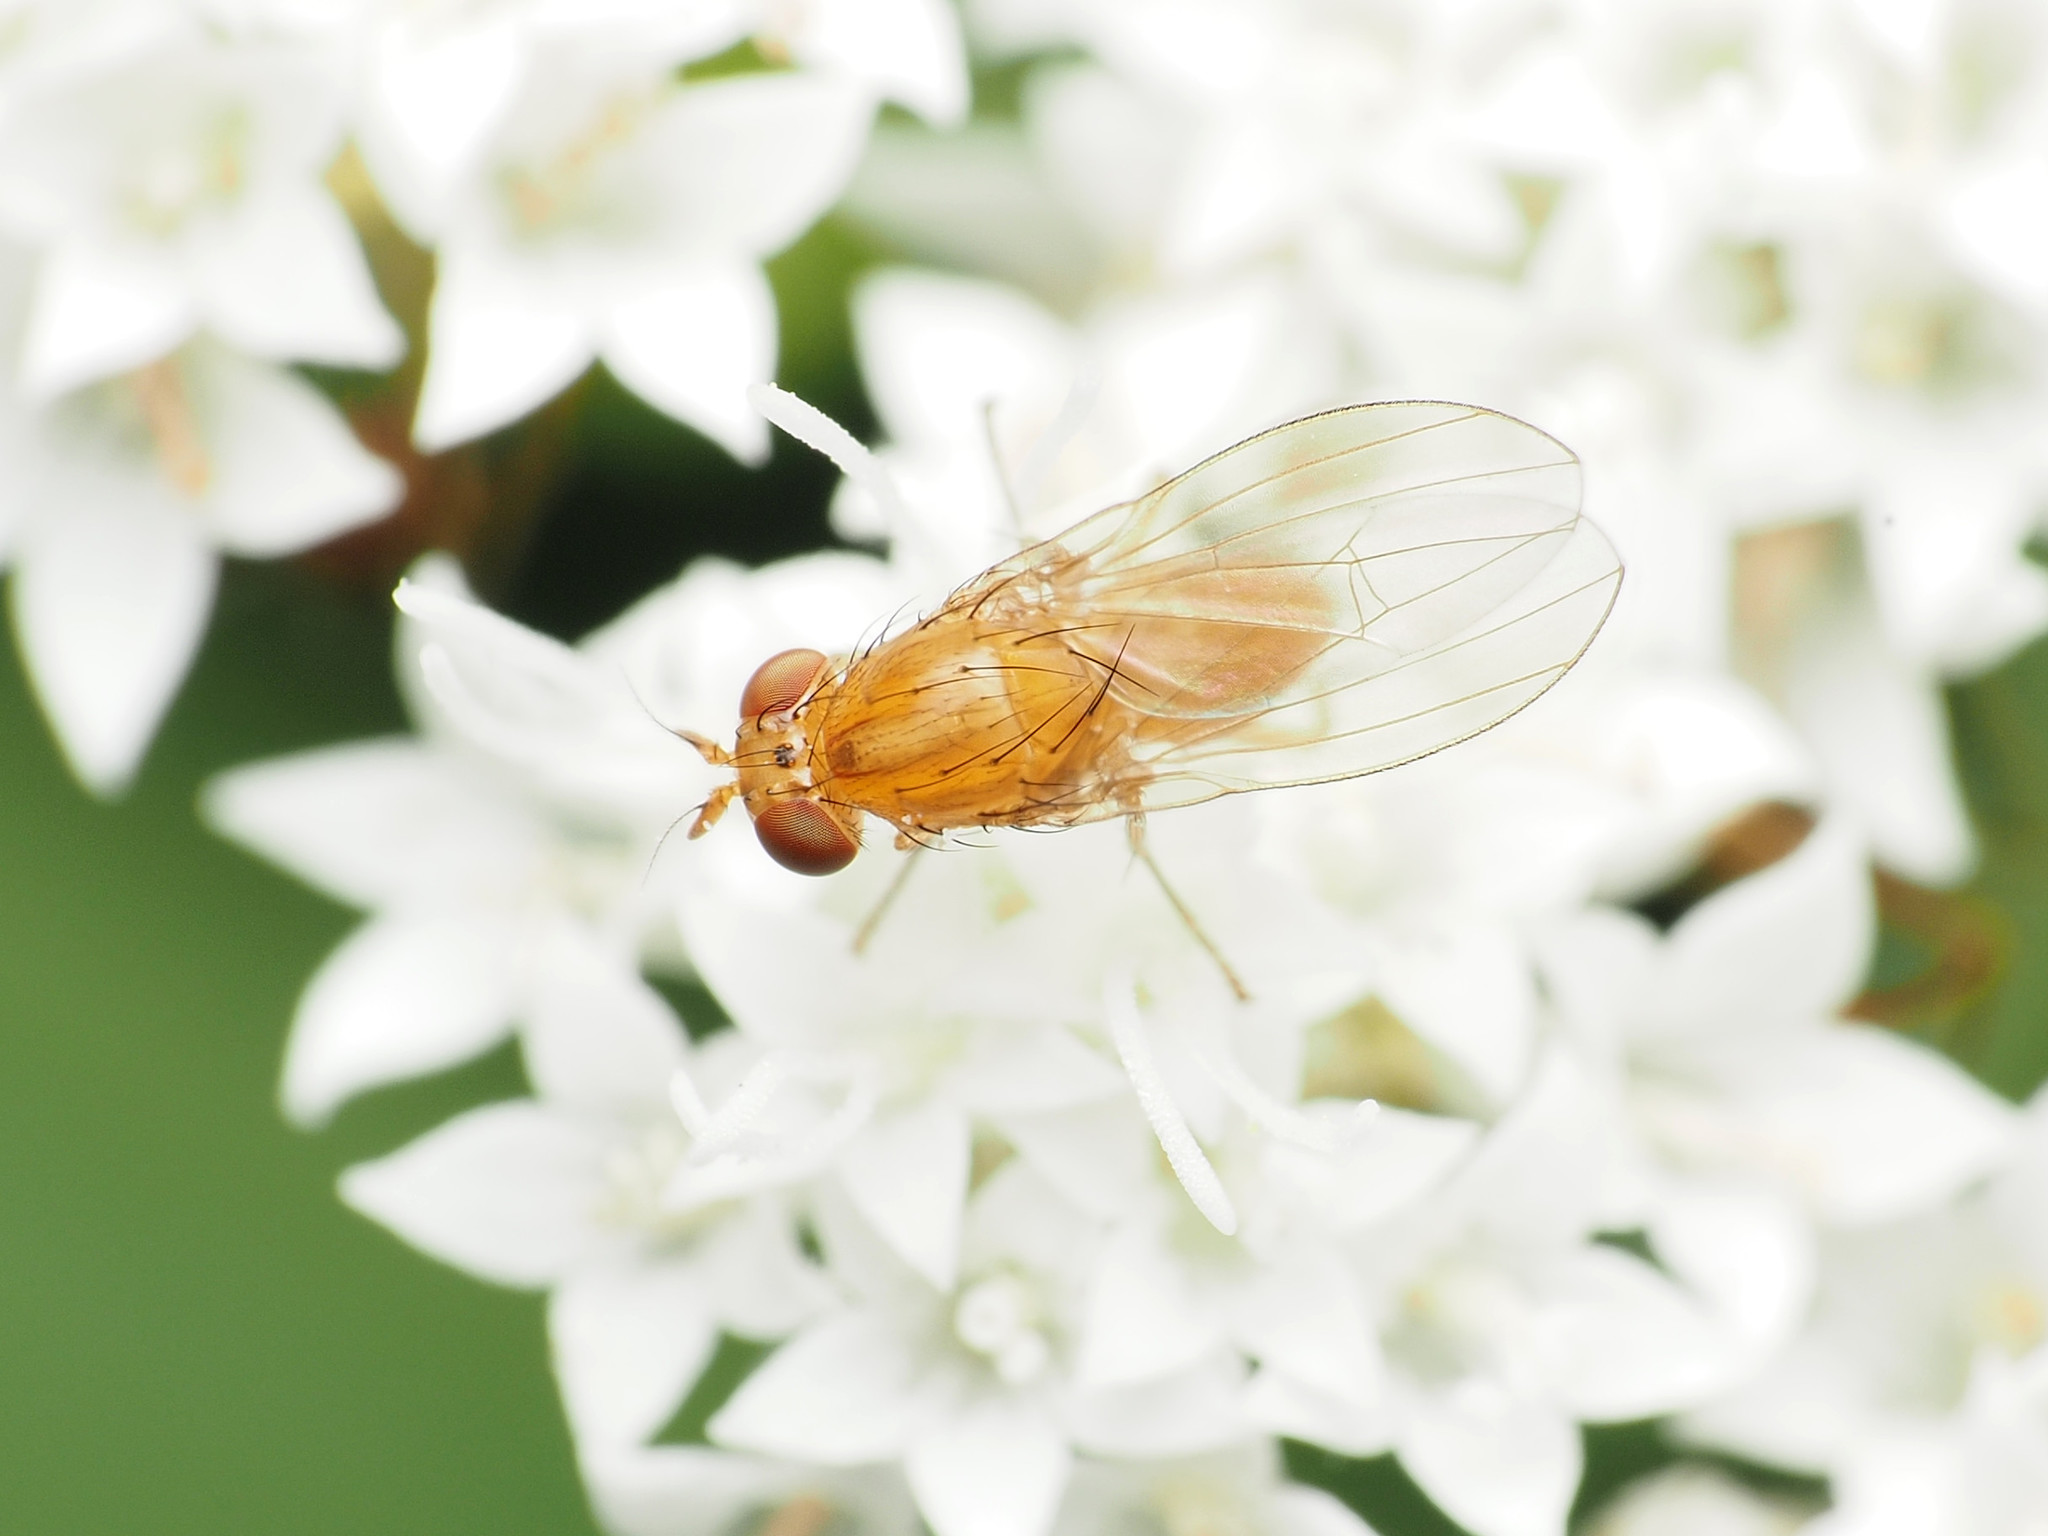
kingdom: Animalia
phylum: Arthropoda
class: Insecta
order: Diptera
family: Lauxaniidae
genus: Homoneura
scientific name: Homoneura unguiculata
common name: Beach fly
